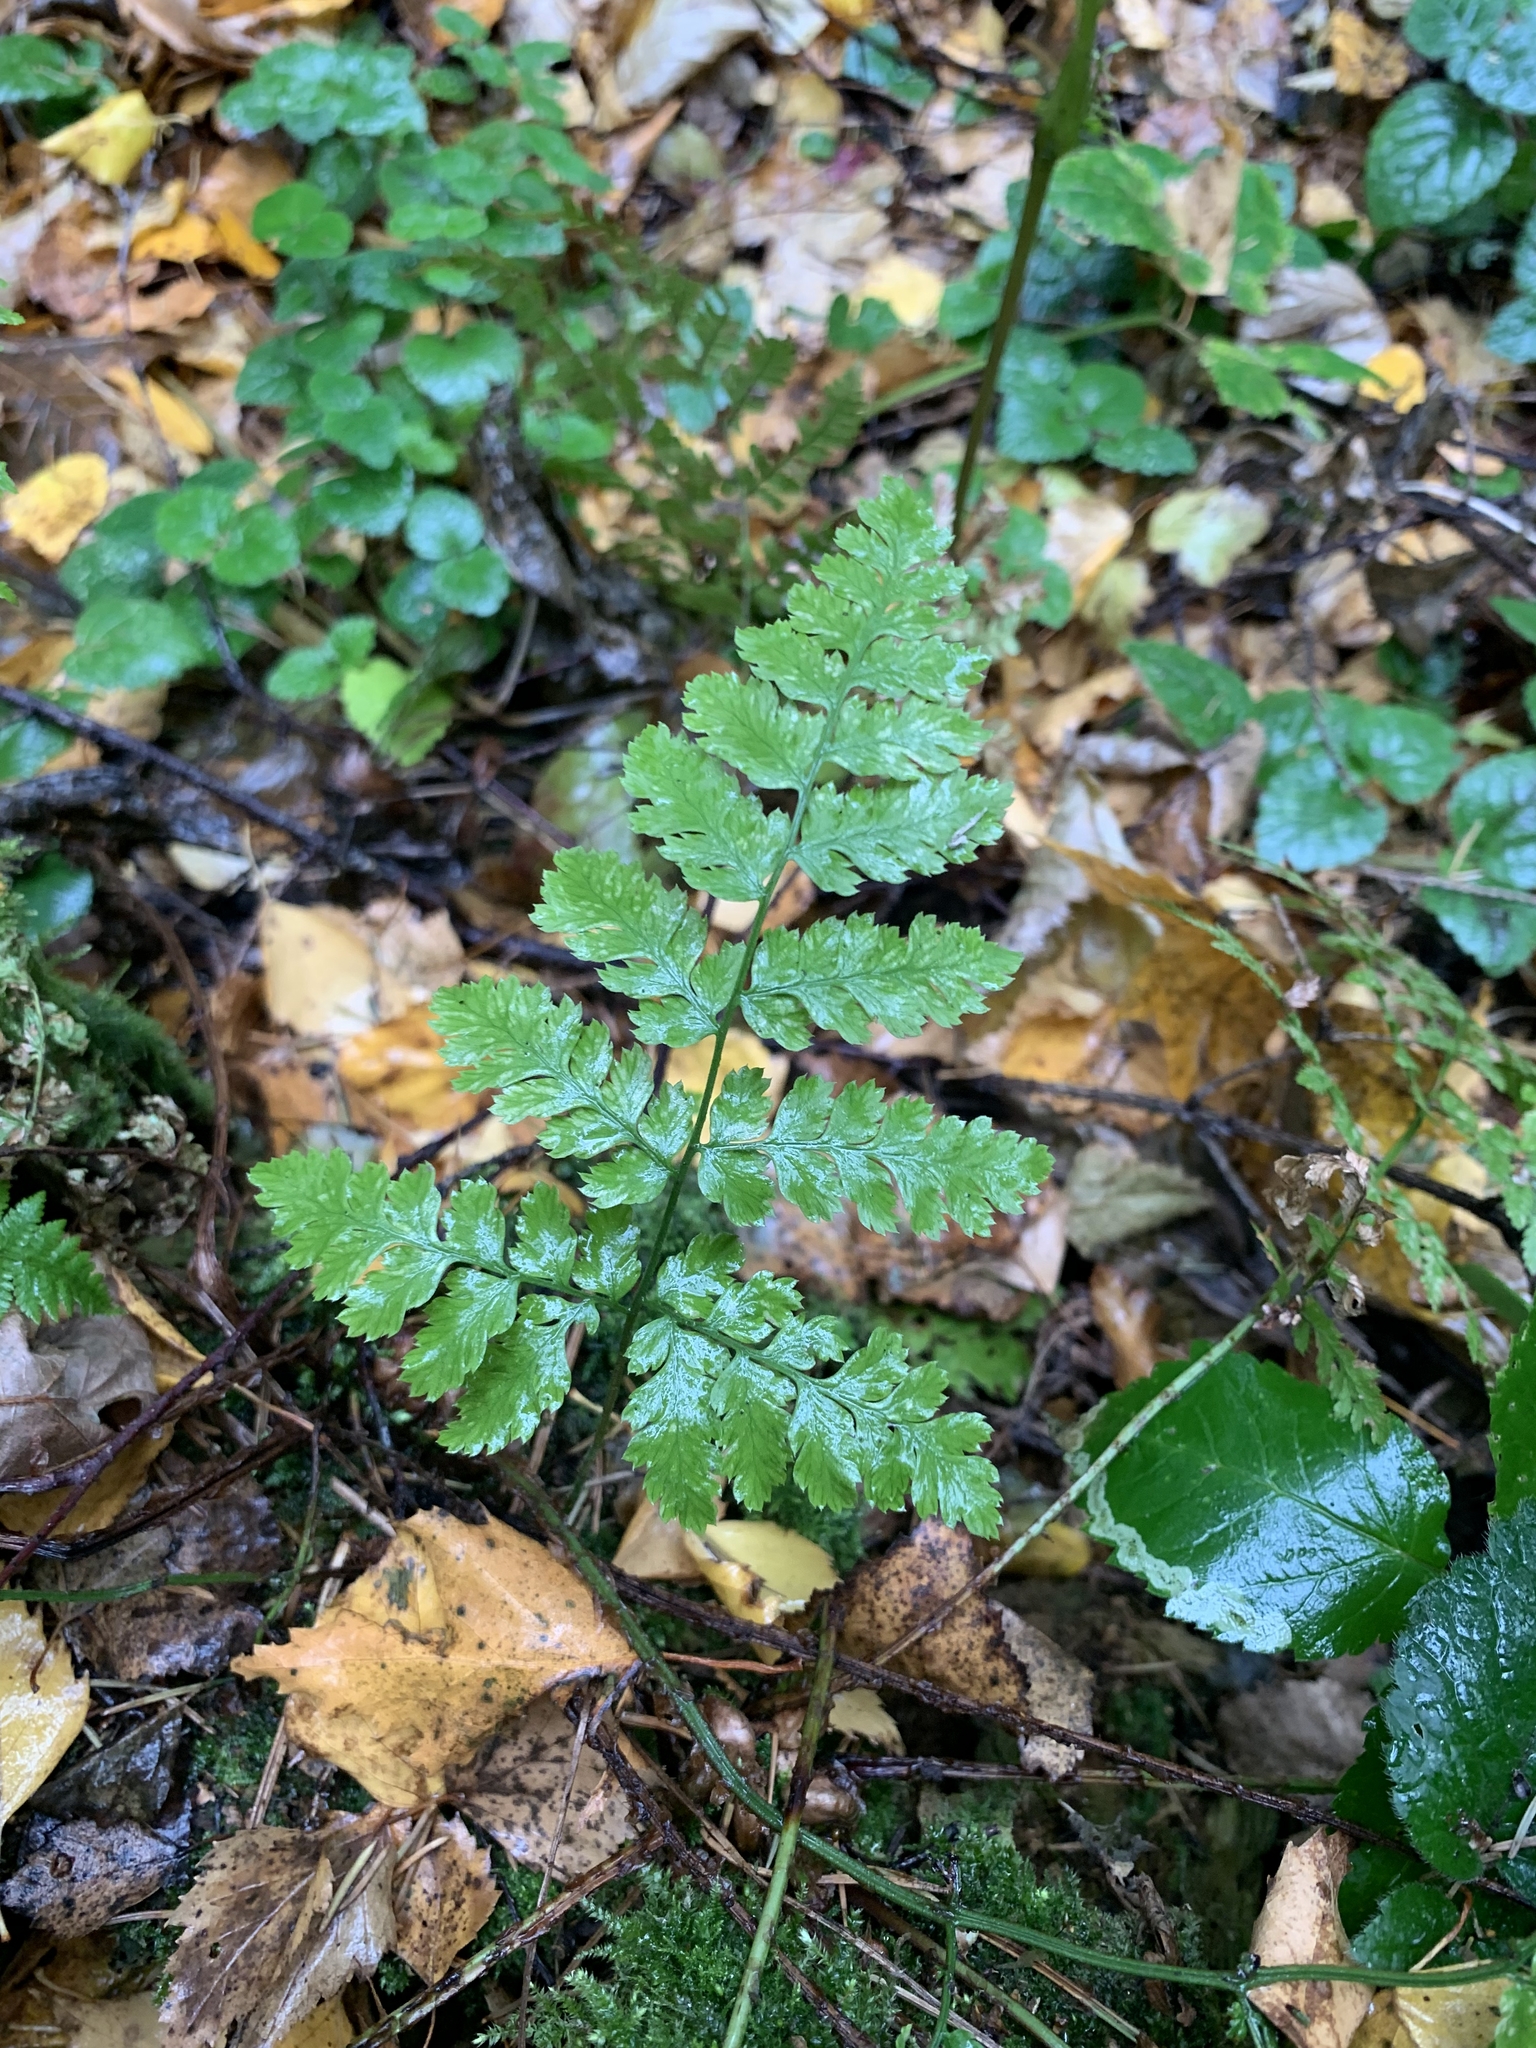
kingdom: Plantae
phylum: Tracheophyta
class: Polypodiopsida
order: Polypodiales
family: Dryopteridaceae
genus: Dryopteris
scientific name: Dryopteris carthusiana
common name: Narrow buckler-fern
